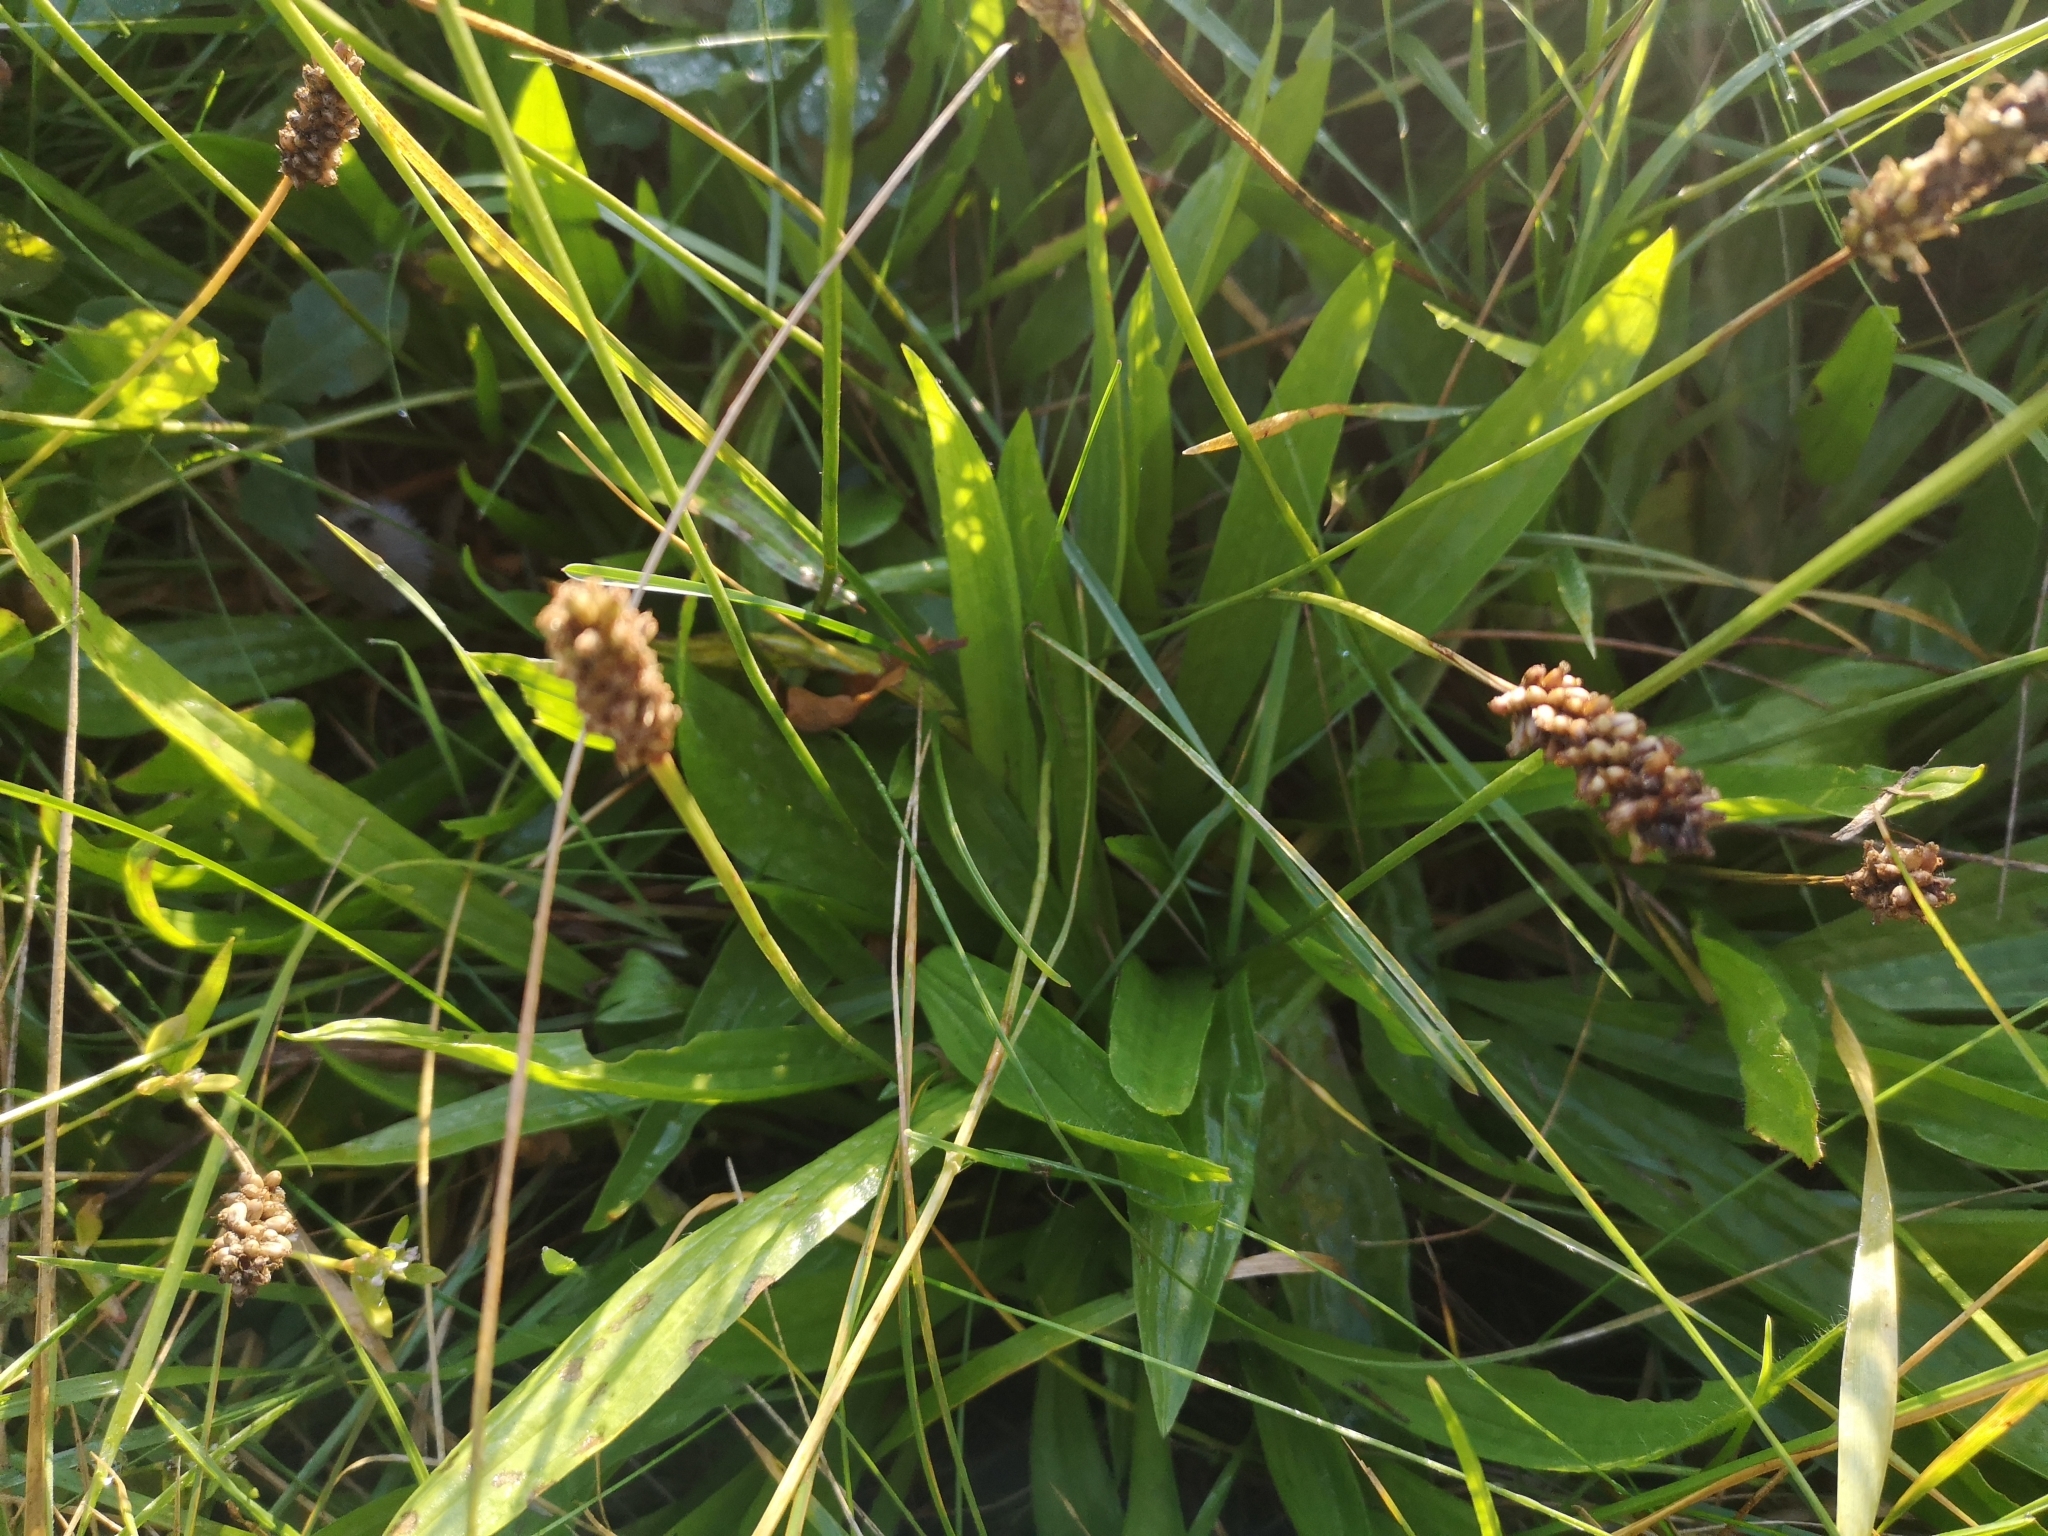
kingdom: Plantae
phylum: Tracheophyta
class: Magnoliopsida
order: Lamiales
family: Plantaginaceae
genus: Plantago
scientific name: Plantago lanceolata
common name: Ribwort plantain
